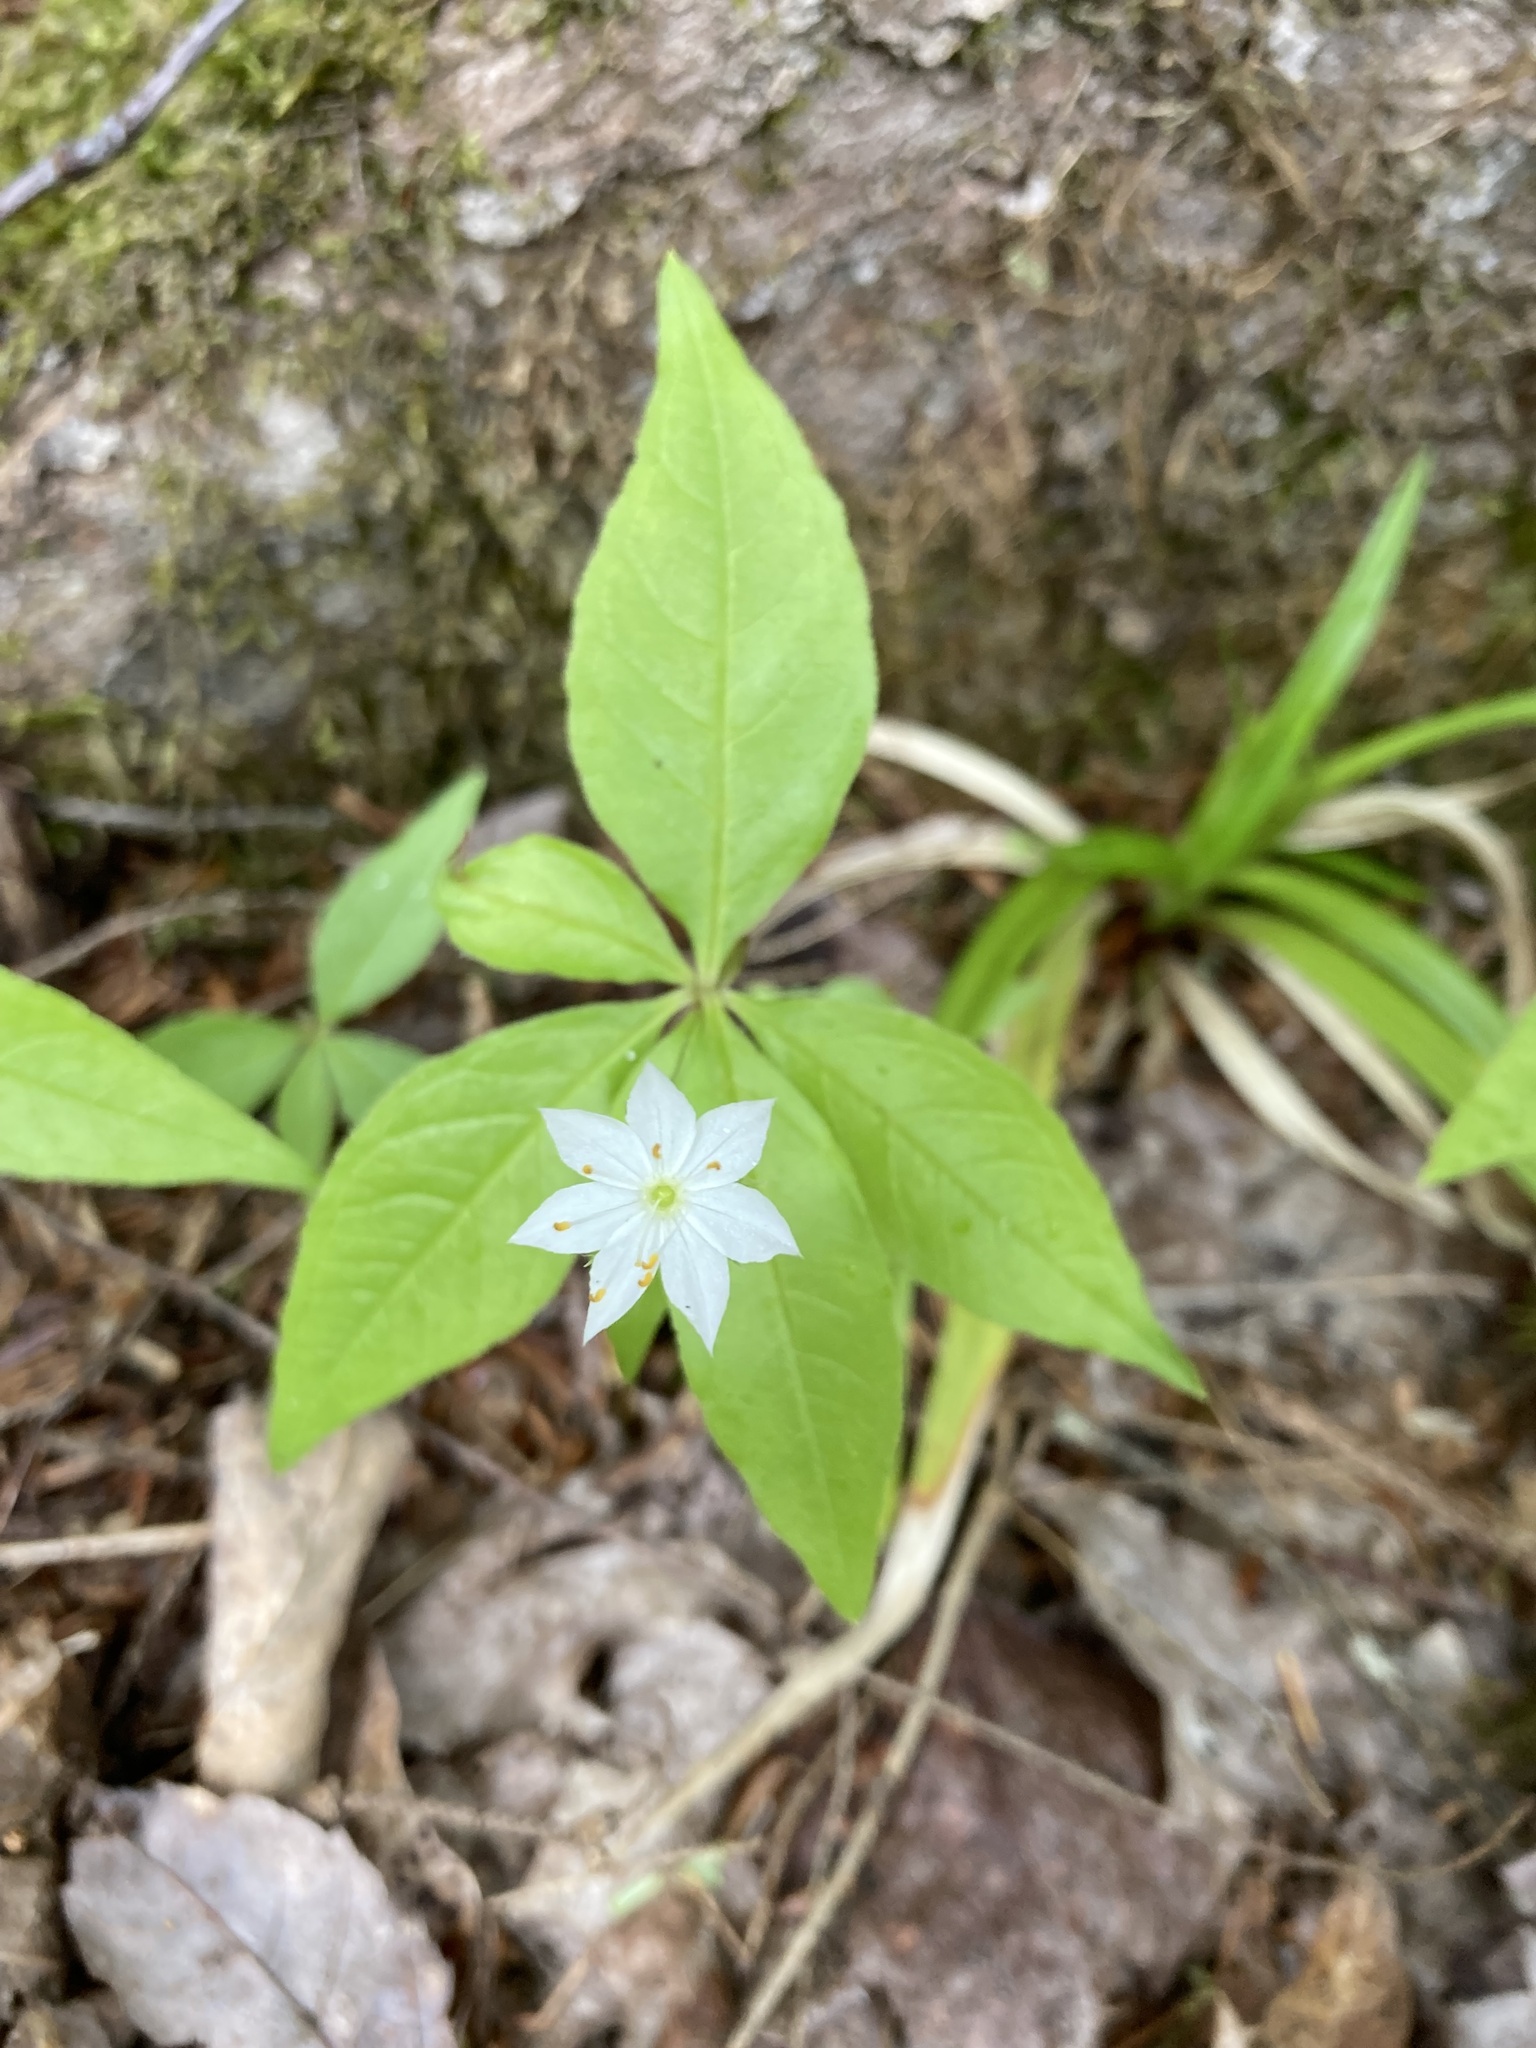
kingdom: Plantae
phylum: Tracheophyta
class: Magnoliopsida
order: Ericales
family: Primulaceae
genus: Lysimachia
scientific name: Lysimachia borealis
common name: American starflower
